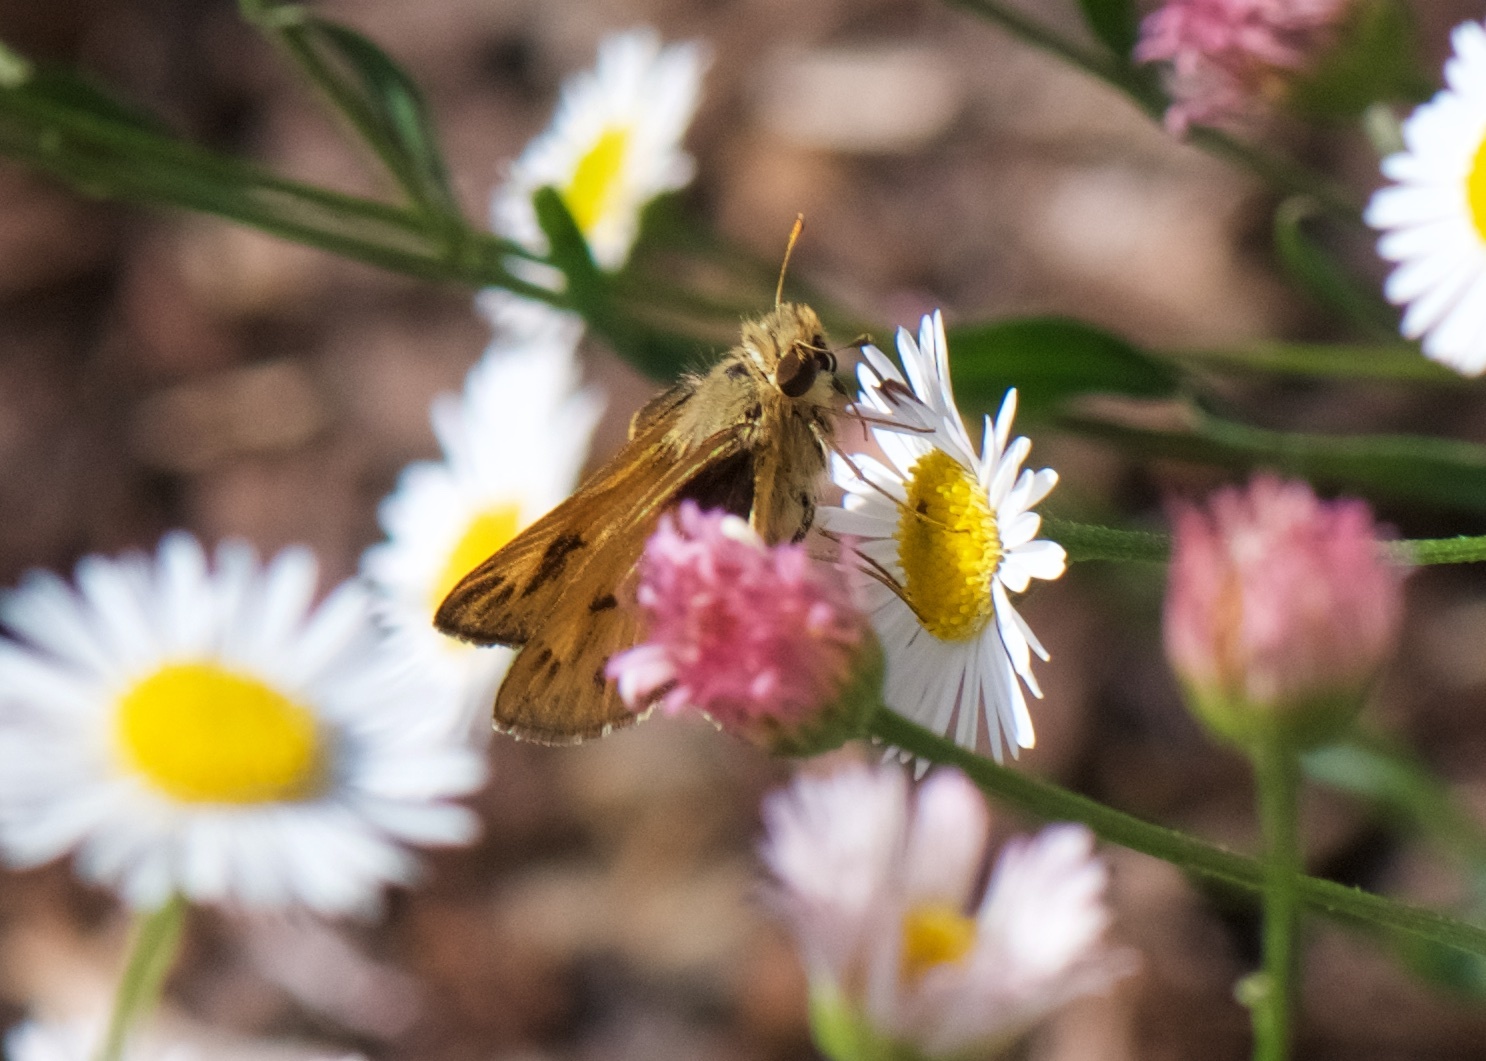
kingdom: Animalia
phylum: Arthropoda
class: Insecta
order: Lepidoptera
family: Hesperiidae
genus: Hylephila
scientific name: Hylephila phyleus
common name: Fiery skipper
